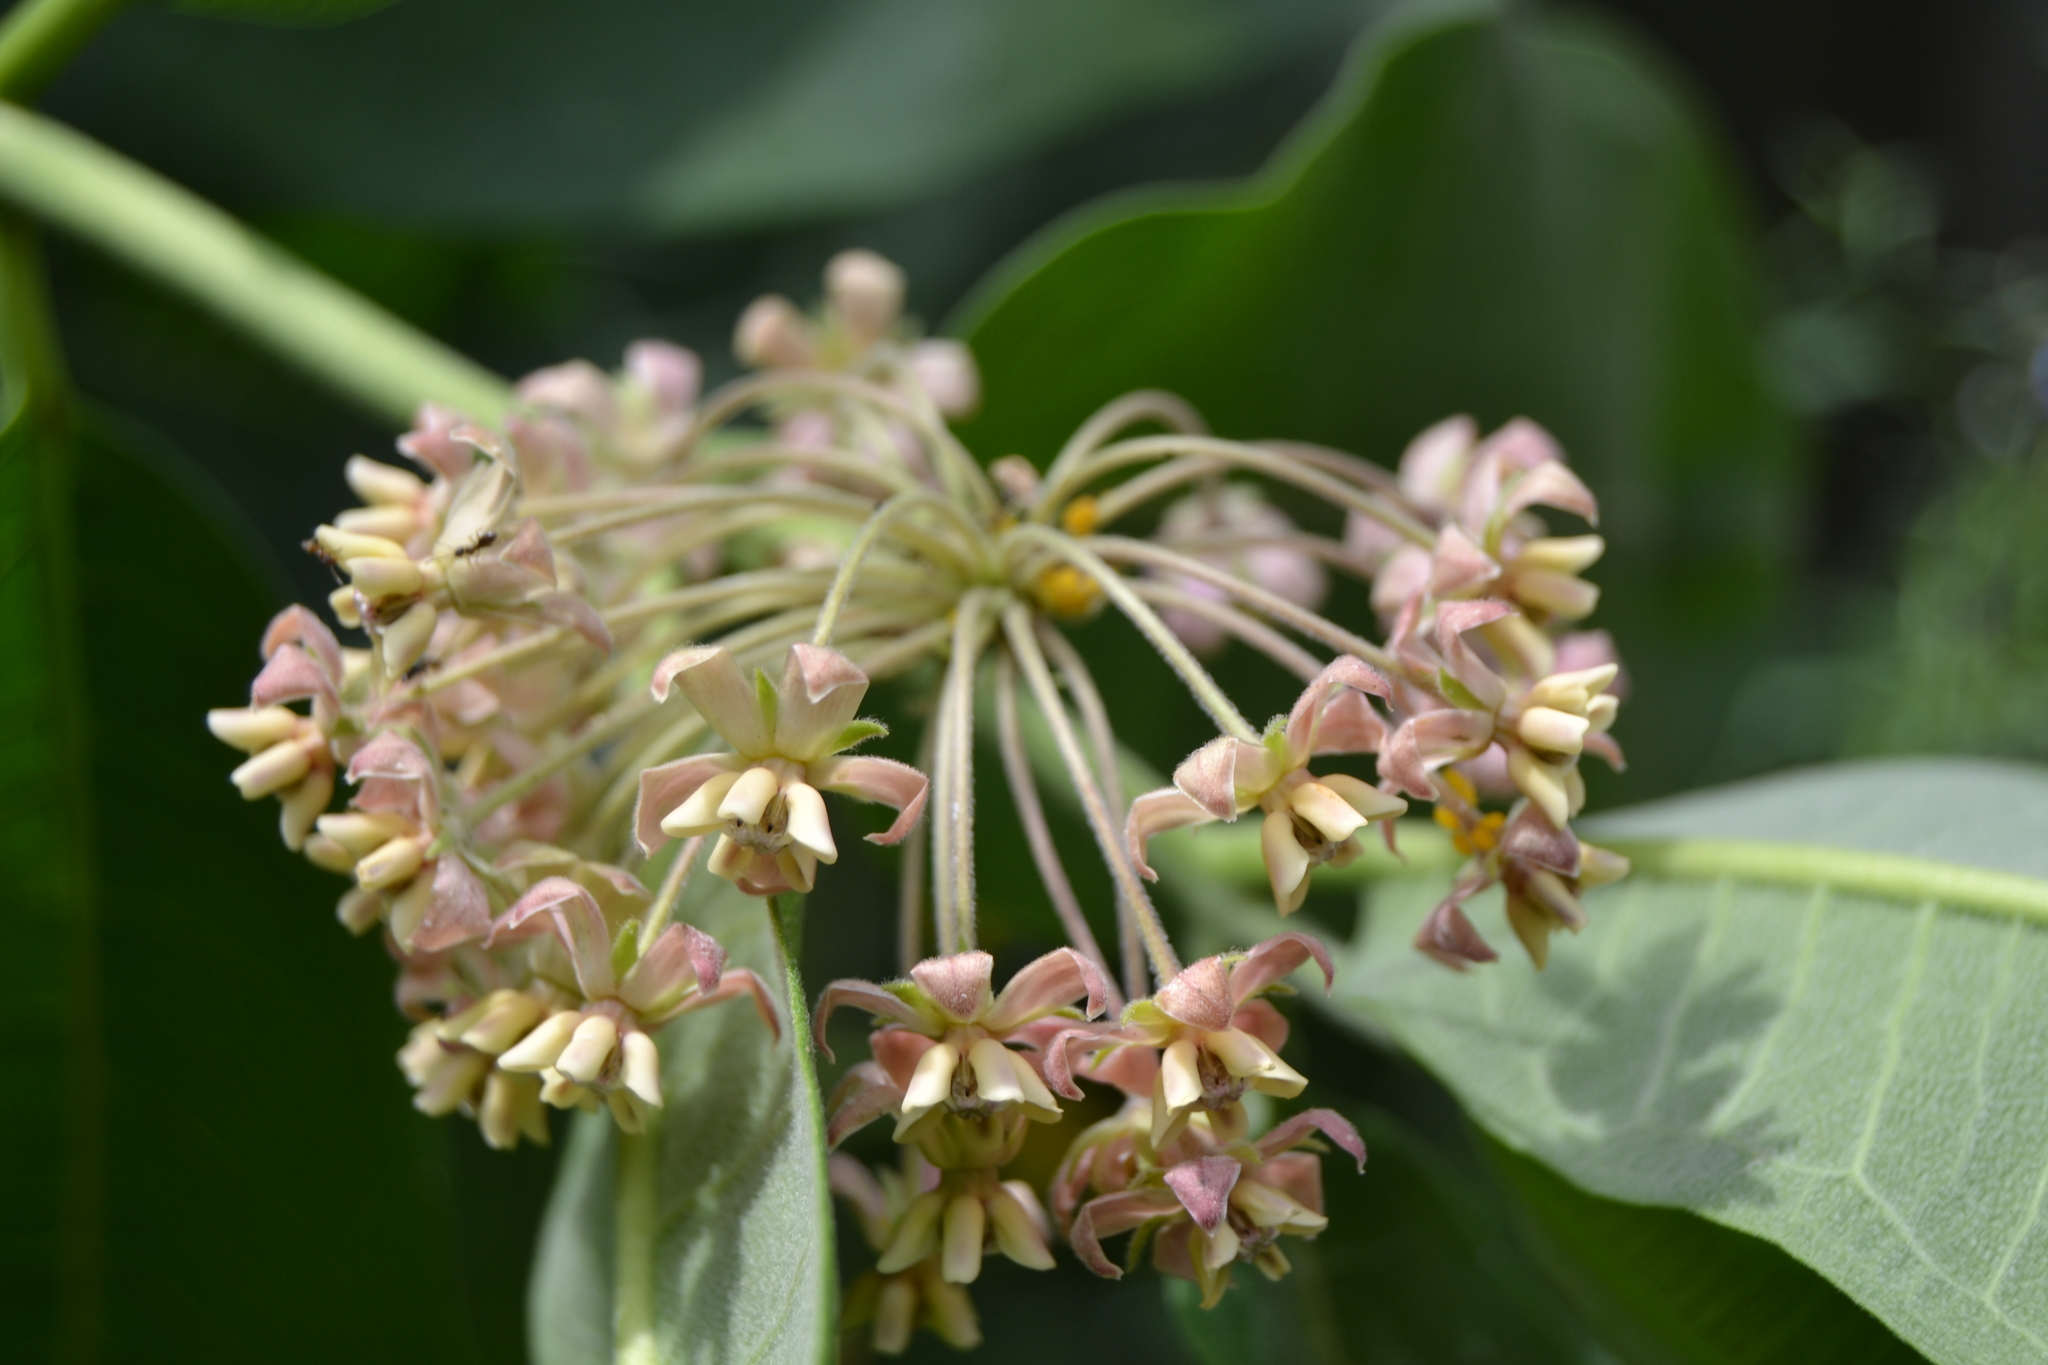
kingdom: Plantae
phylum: Tracheophyta
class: Magnoliopsida
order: Gentianales
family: Apocynaceae
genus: Asclepias
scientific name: Asclepias syriaca
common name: Common milkweed
